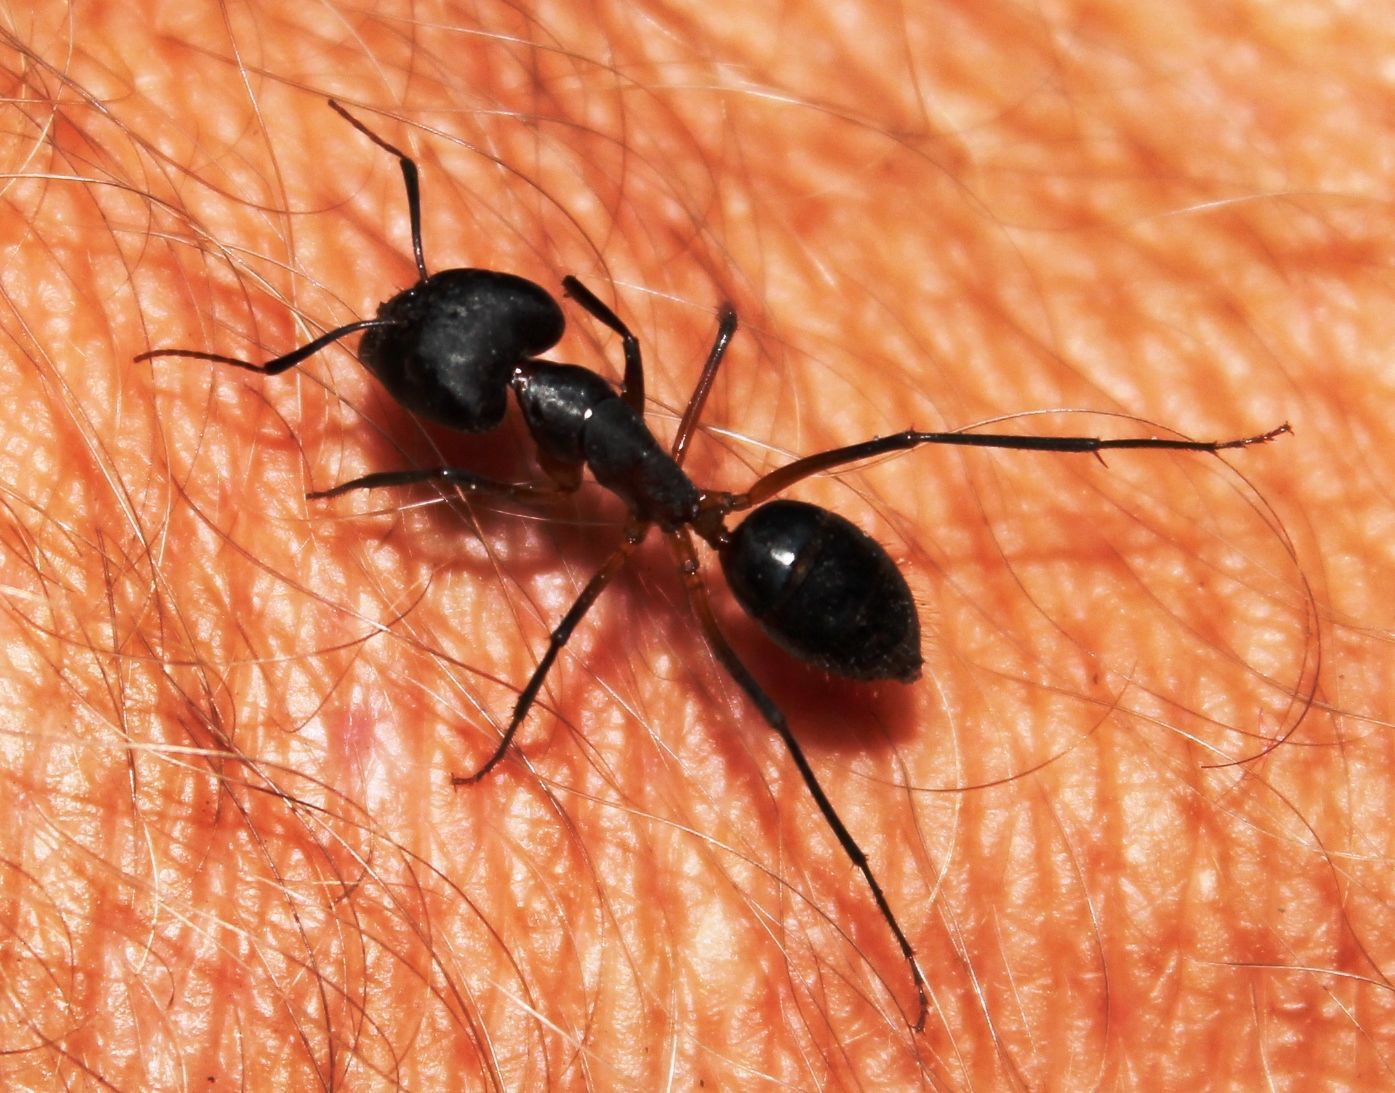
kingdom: Animalia
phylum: Arthropoda
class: Insecta
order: Hymenoptera
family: Formicidae
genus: Camponotus
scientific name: Camponotus baynei
